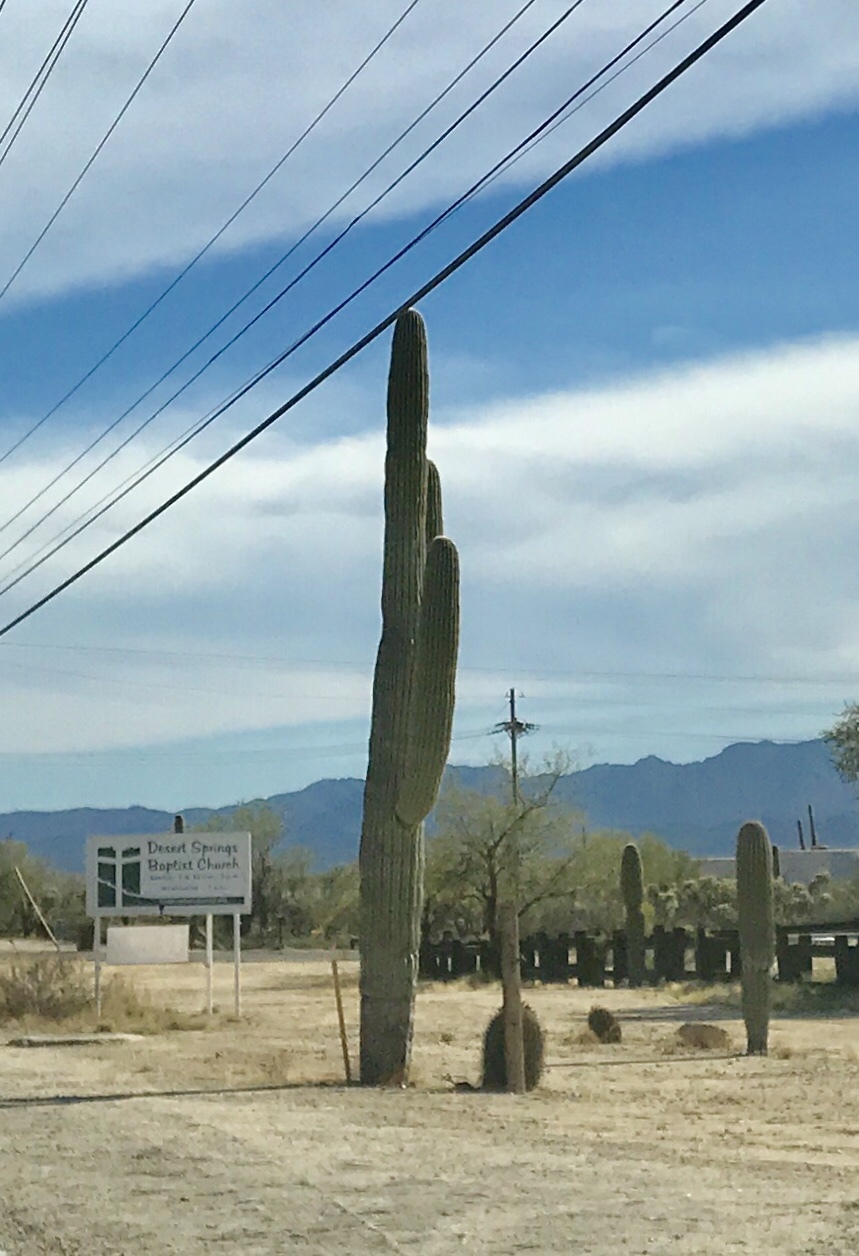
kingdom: Plantae
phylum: Tracheophyta
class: Magnoliopsida
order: Caryophyllales
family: Cactaceae
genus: Carnegiea
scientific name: Carnegiea gigantea
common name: Saguaro
